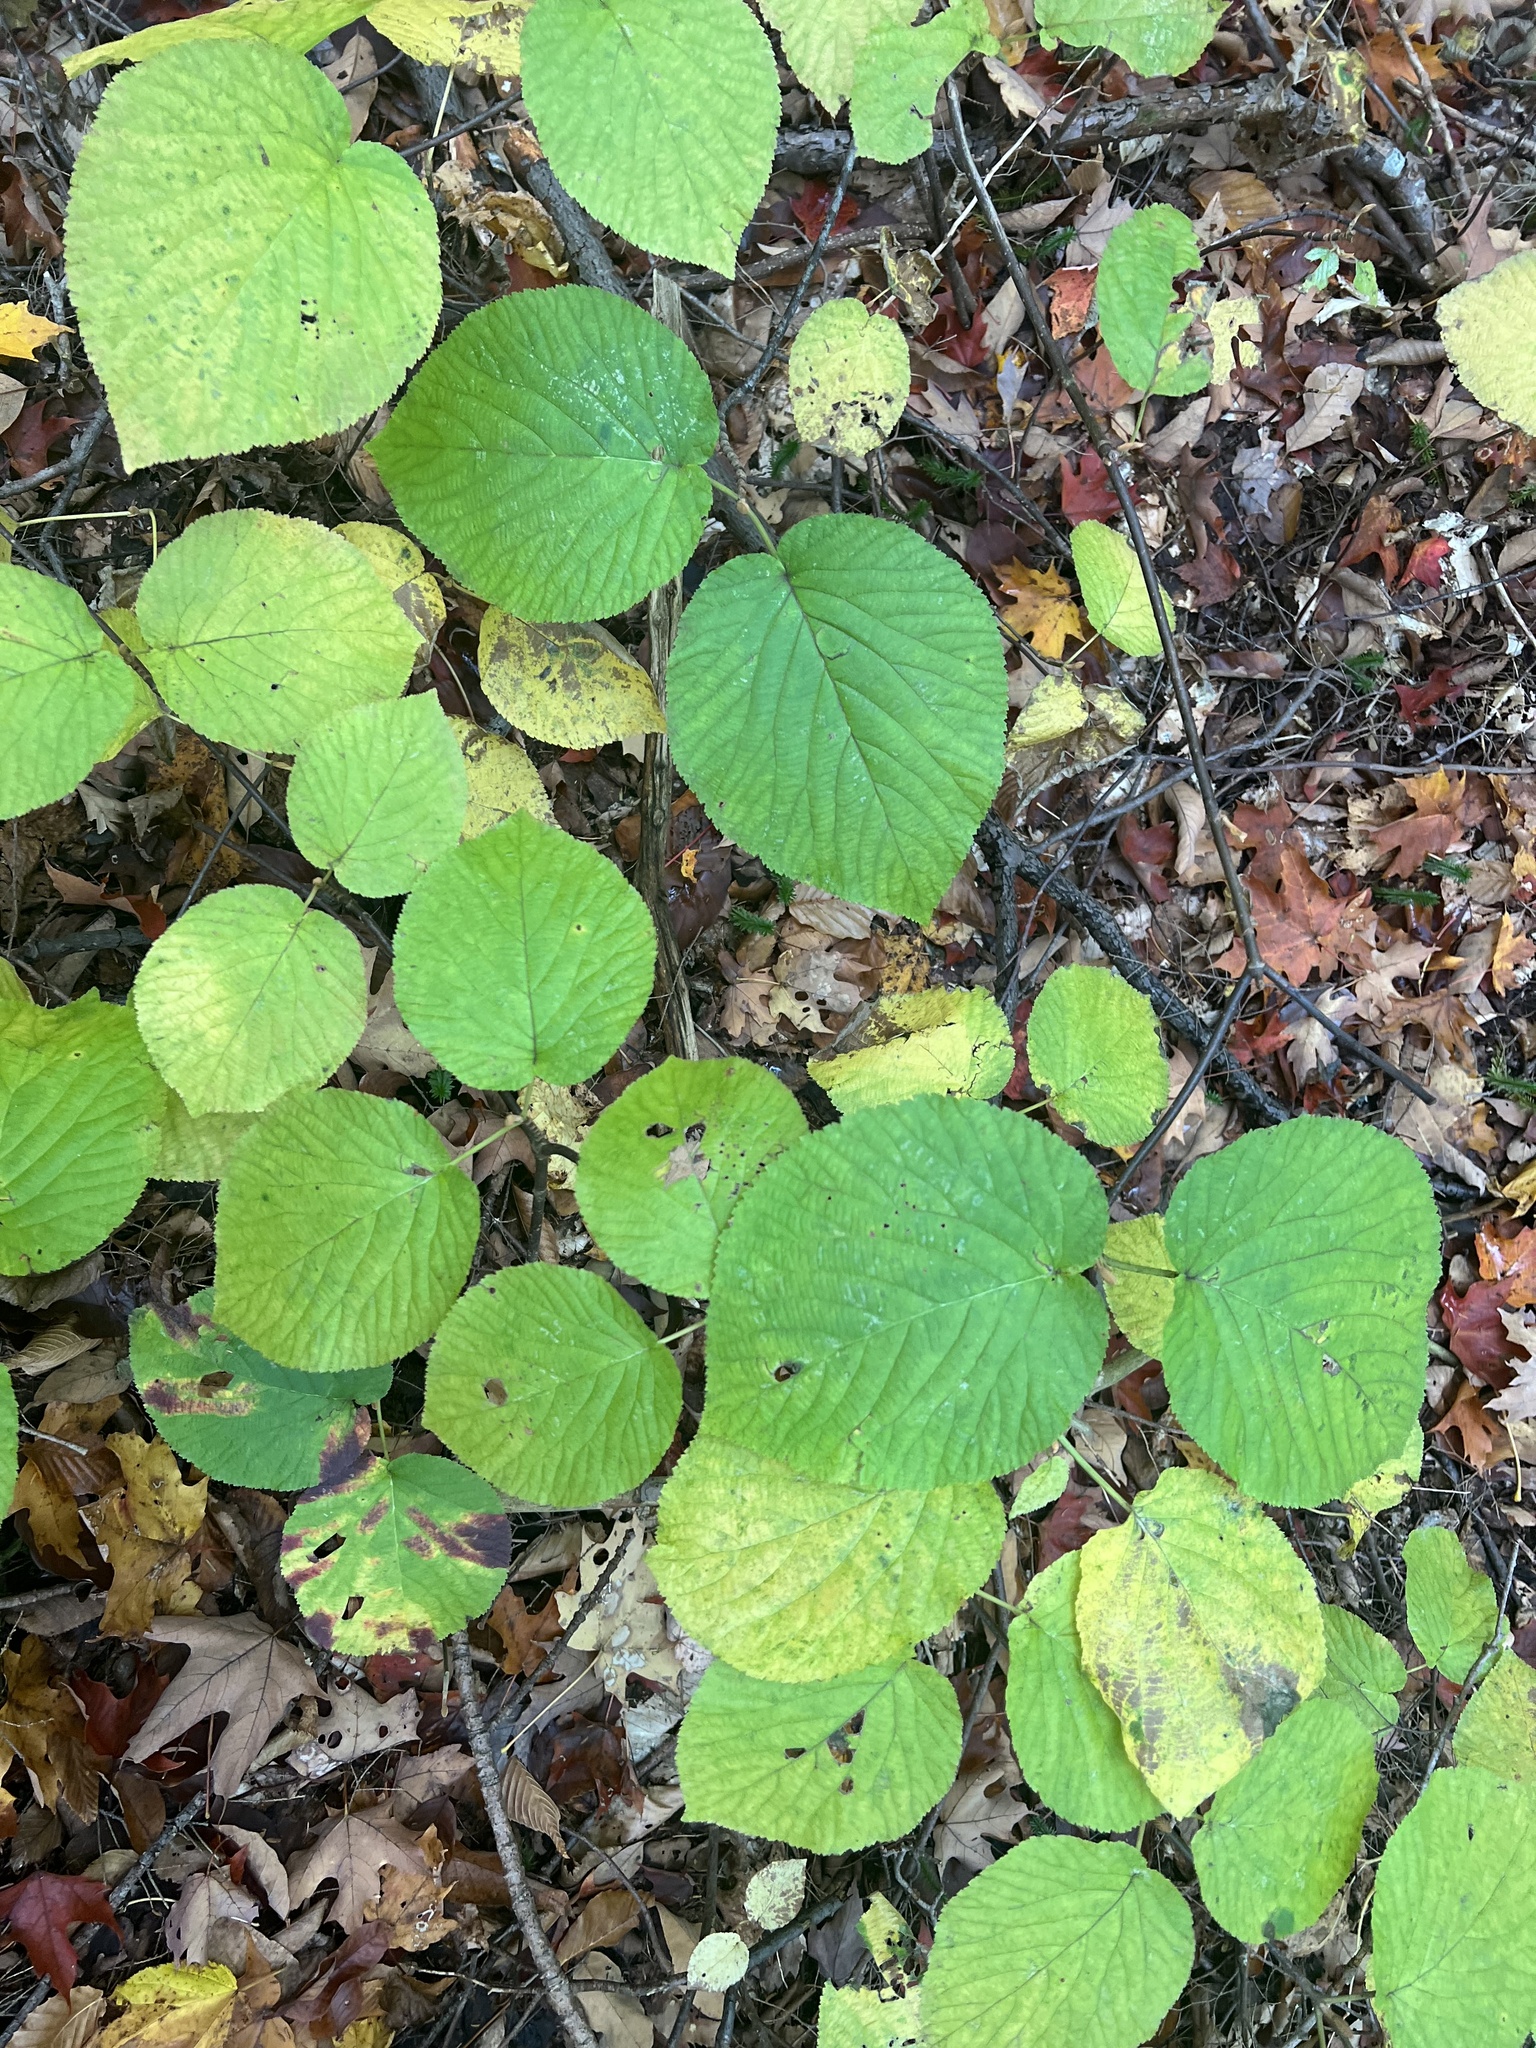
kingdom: Plantae
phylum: Tracheophyta
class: Magnoliopsida
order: Dipsacales
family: Viburnaceae
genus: Viburnum
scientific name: Viburnum lantanoides
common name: Hobblebush
